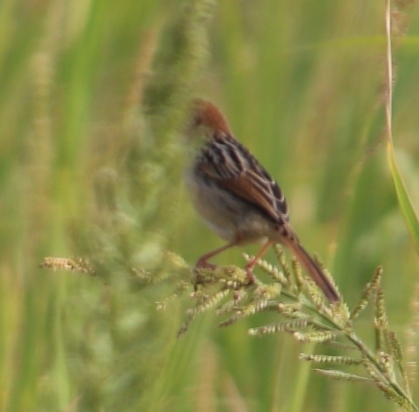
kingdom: Animalia
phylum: Chordata
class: Aves
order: Passeriformes
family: Cisticolidae
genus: Cisticola
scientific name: Cisticola tinniens
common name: Levaillant's cisticola
